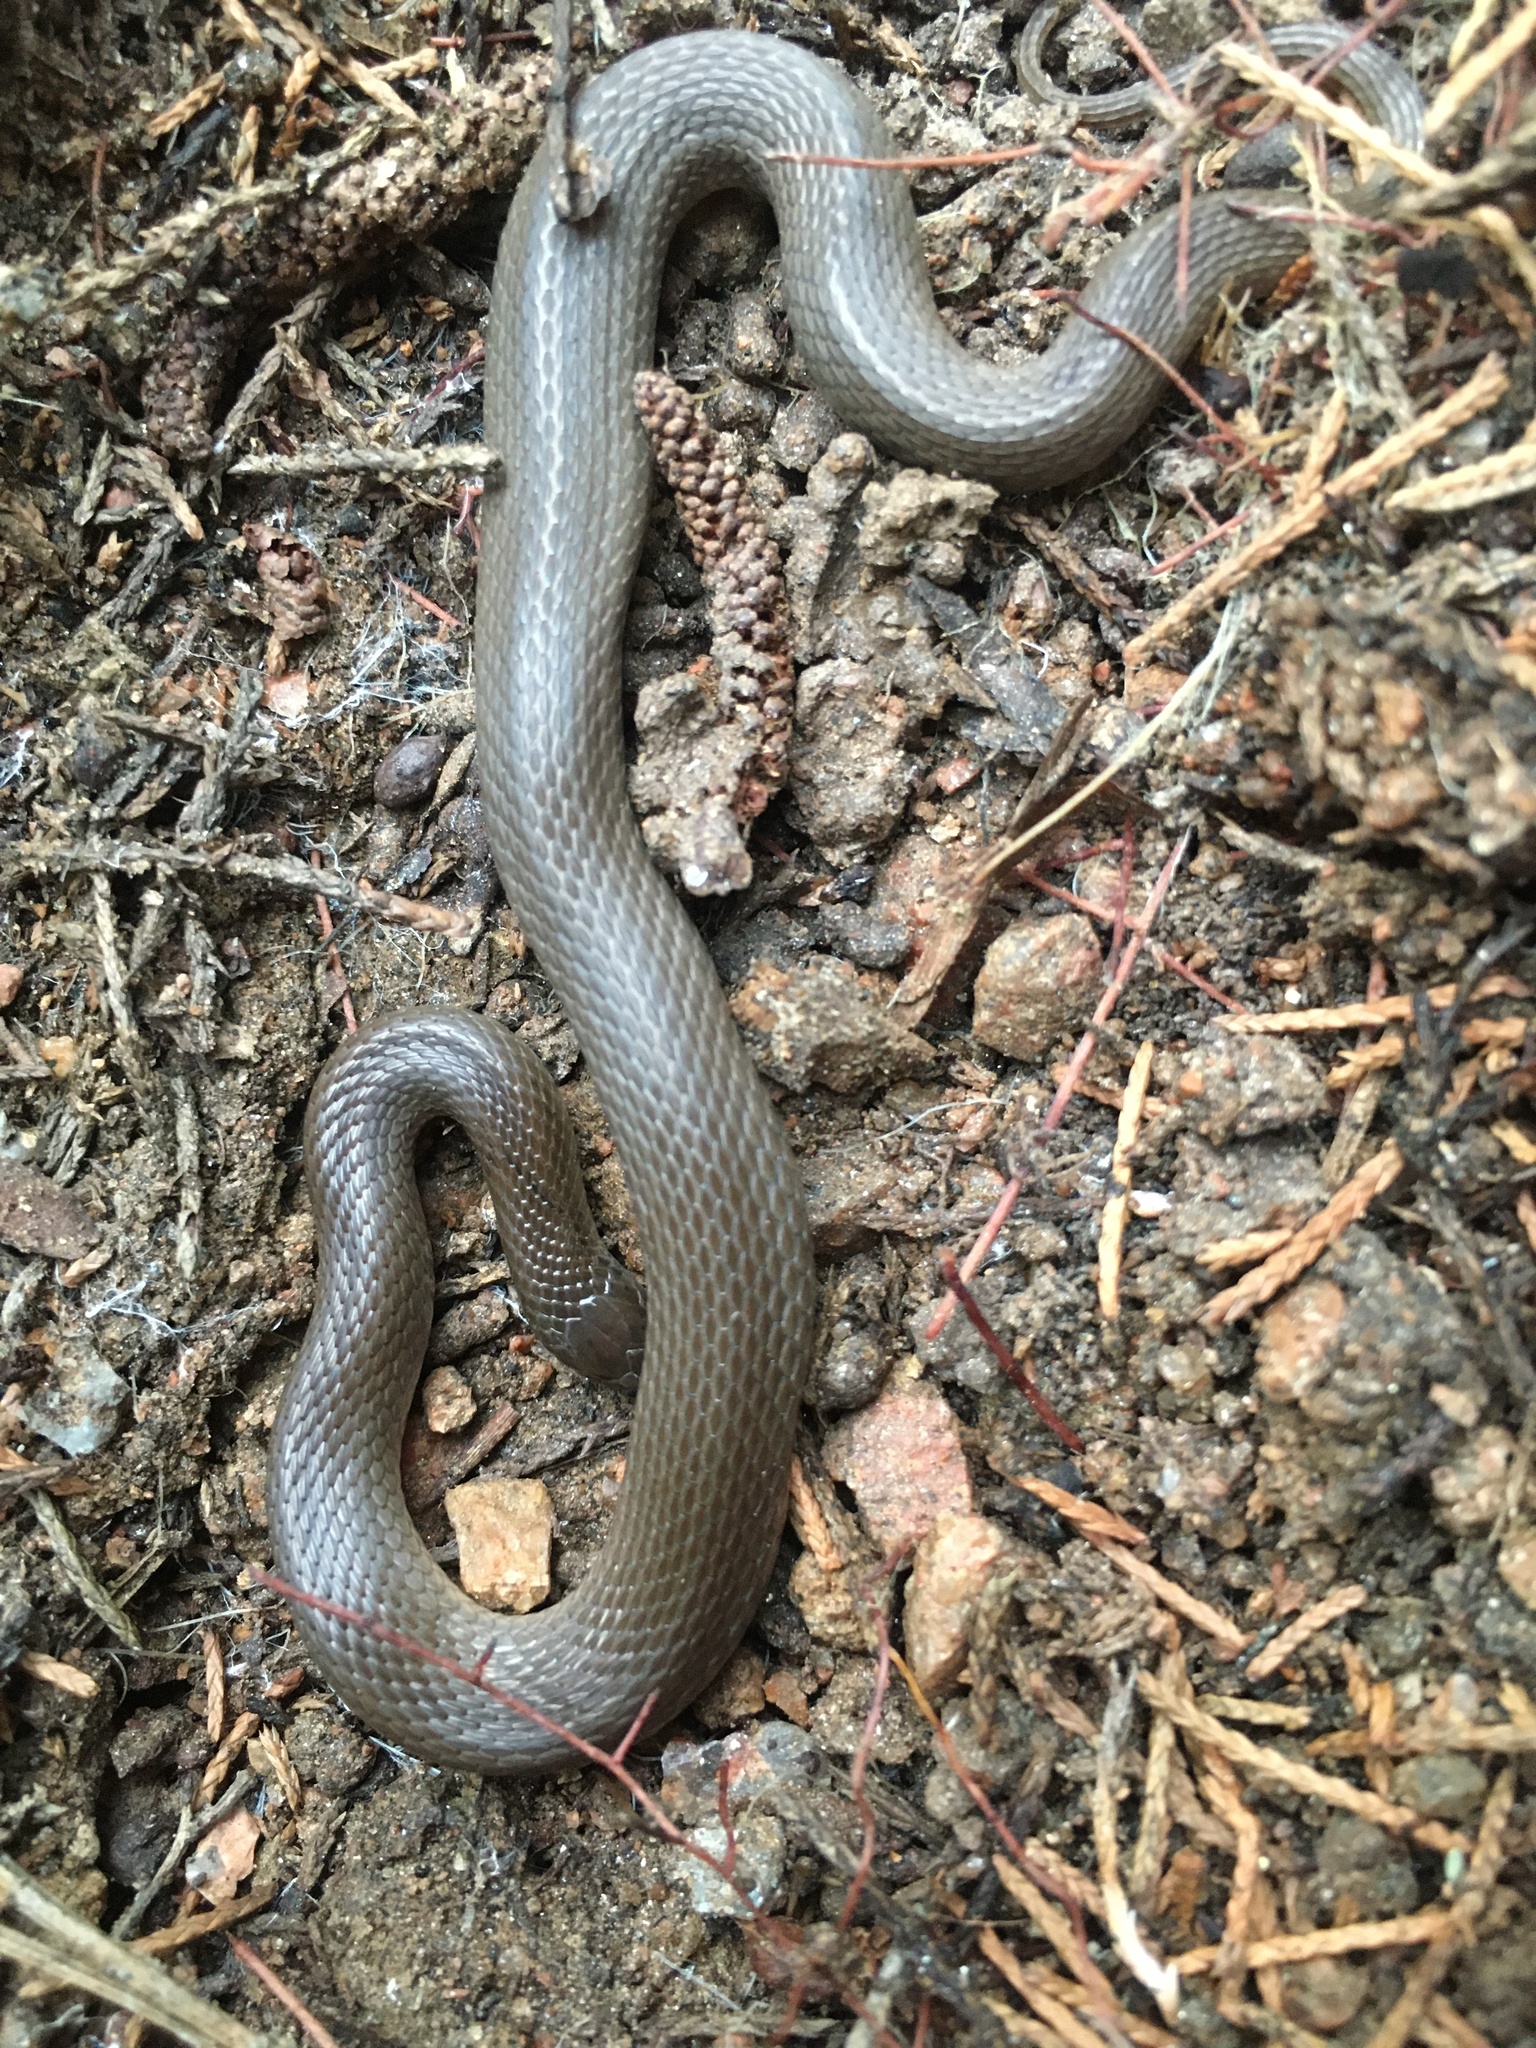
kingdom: Animalia
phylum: Chordata
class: Squamata
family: Colubridae
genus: Haldea
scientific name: Haldea striatula
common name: Rough earth snake
